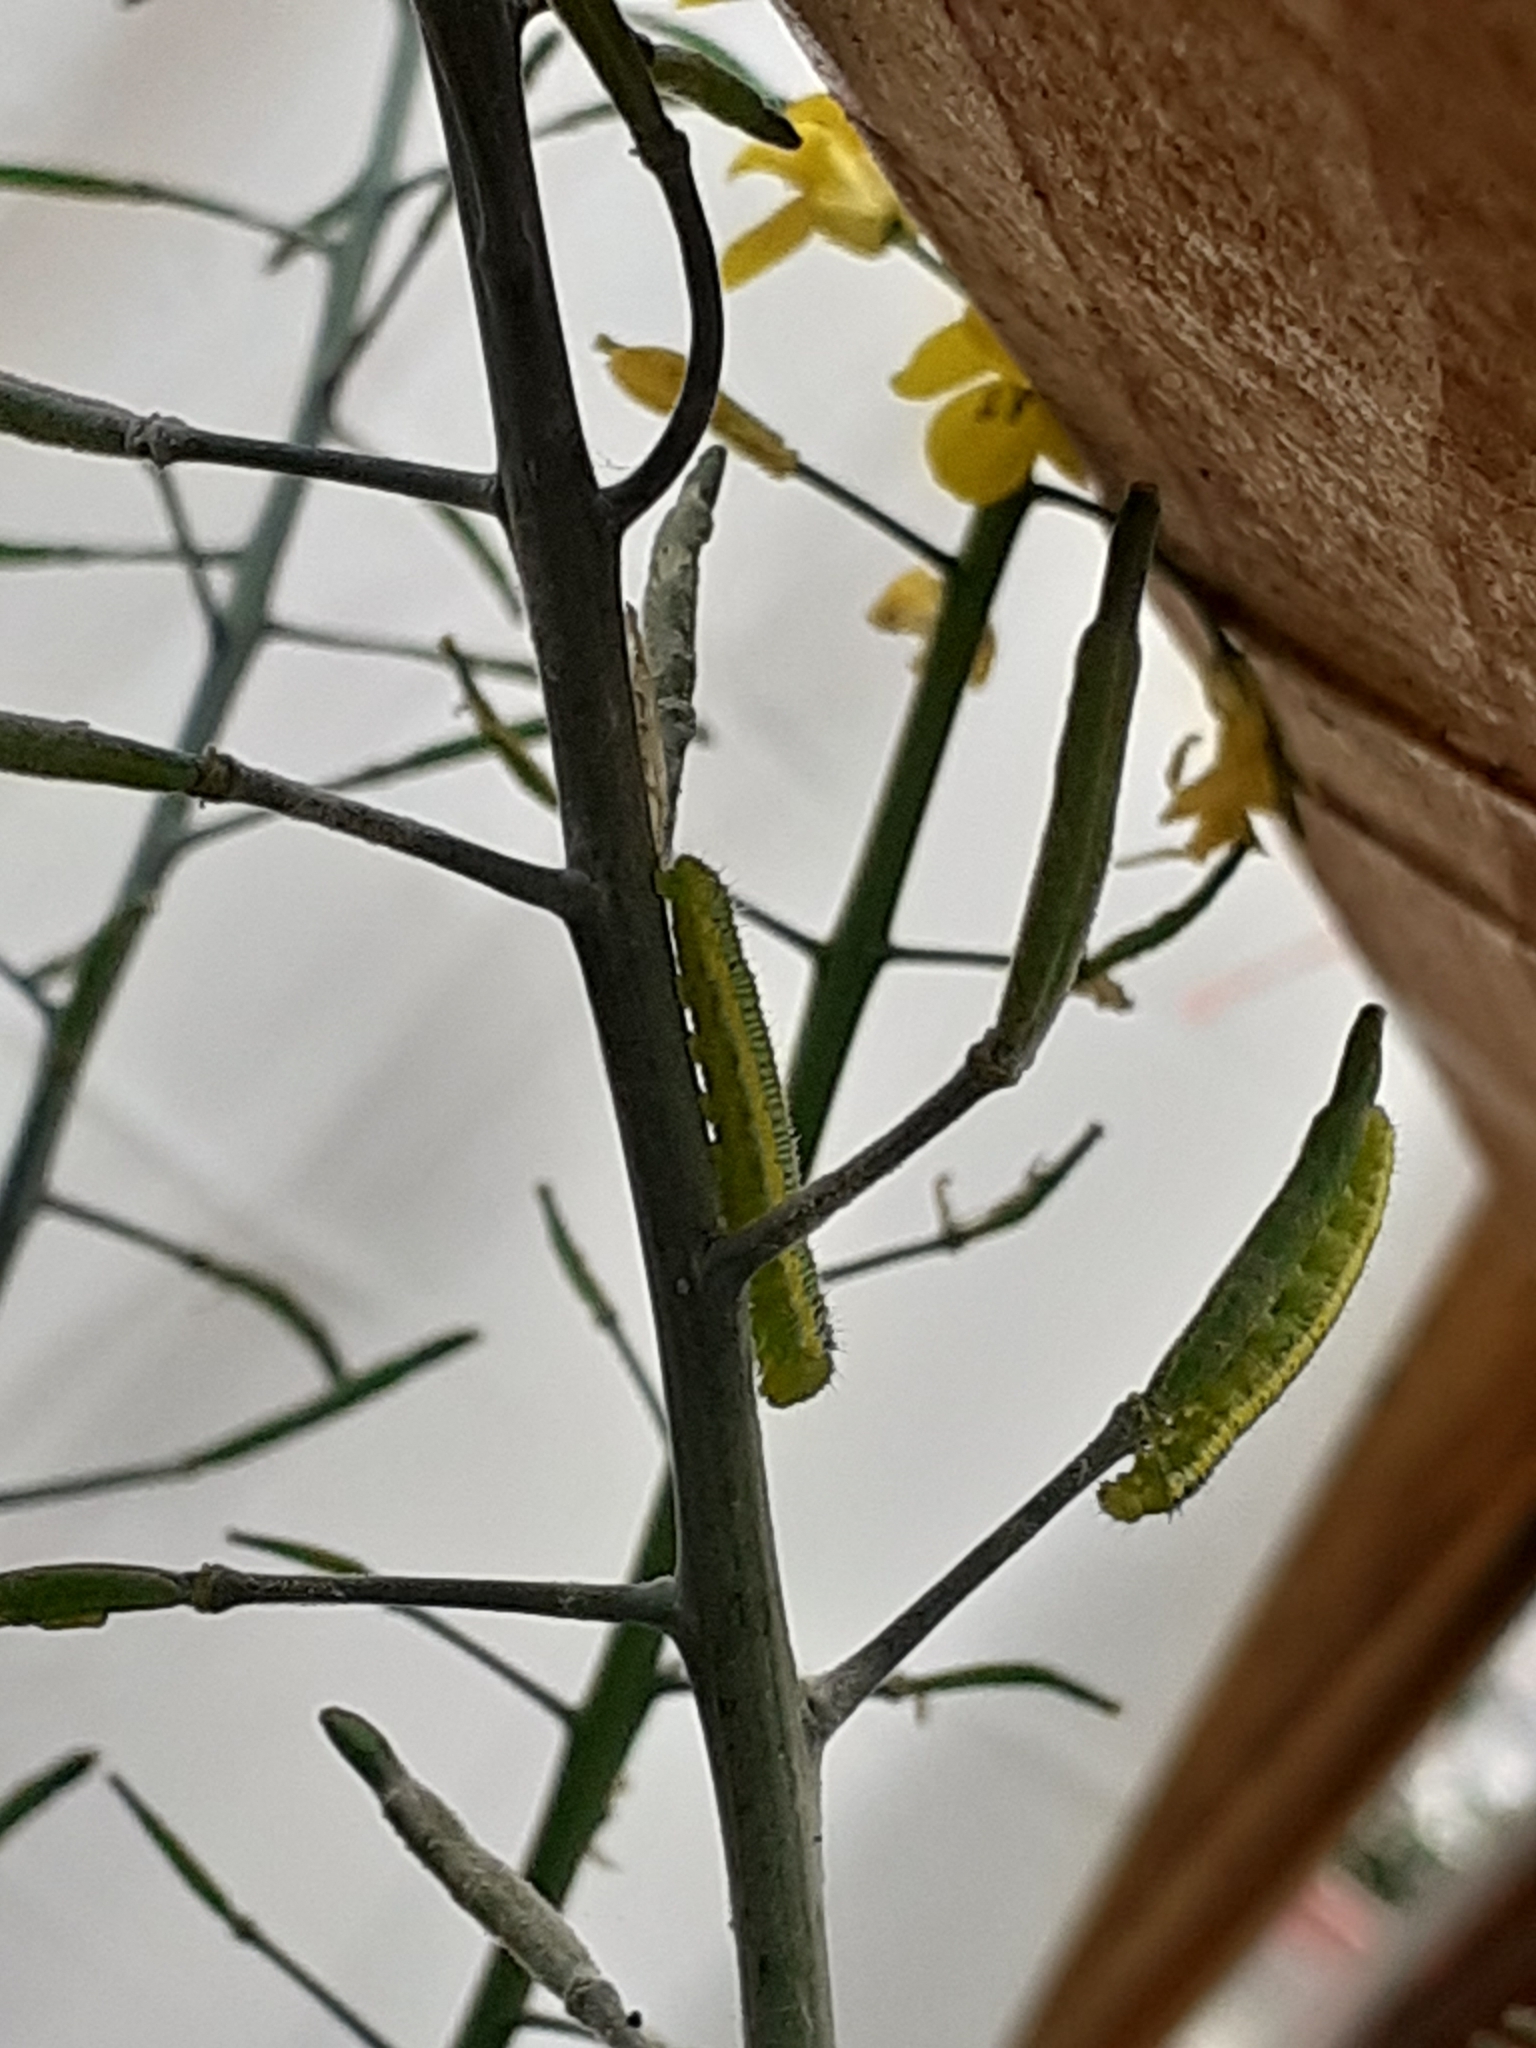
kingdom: Animalia
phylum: Arthropoda
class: Insecta
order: Lepidoptera
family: Pieridae
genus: Leptophobia
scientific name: Leptophobia aripa
